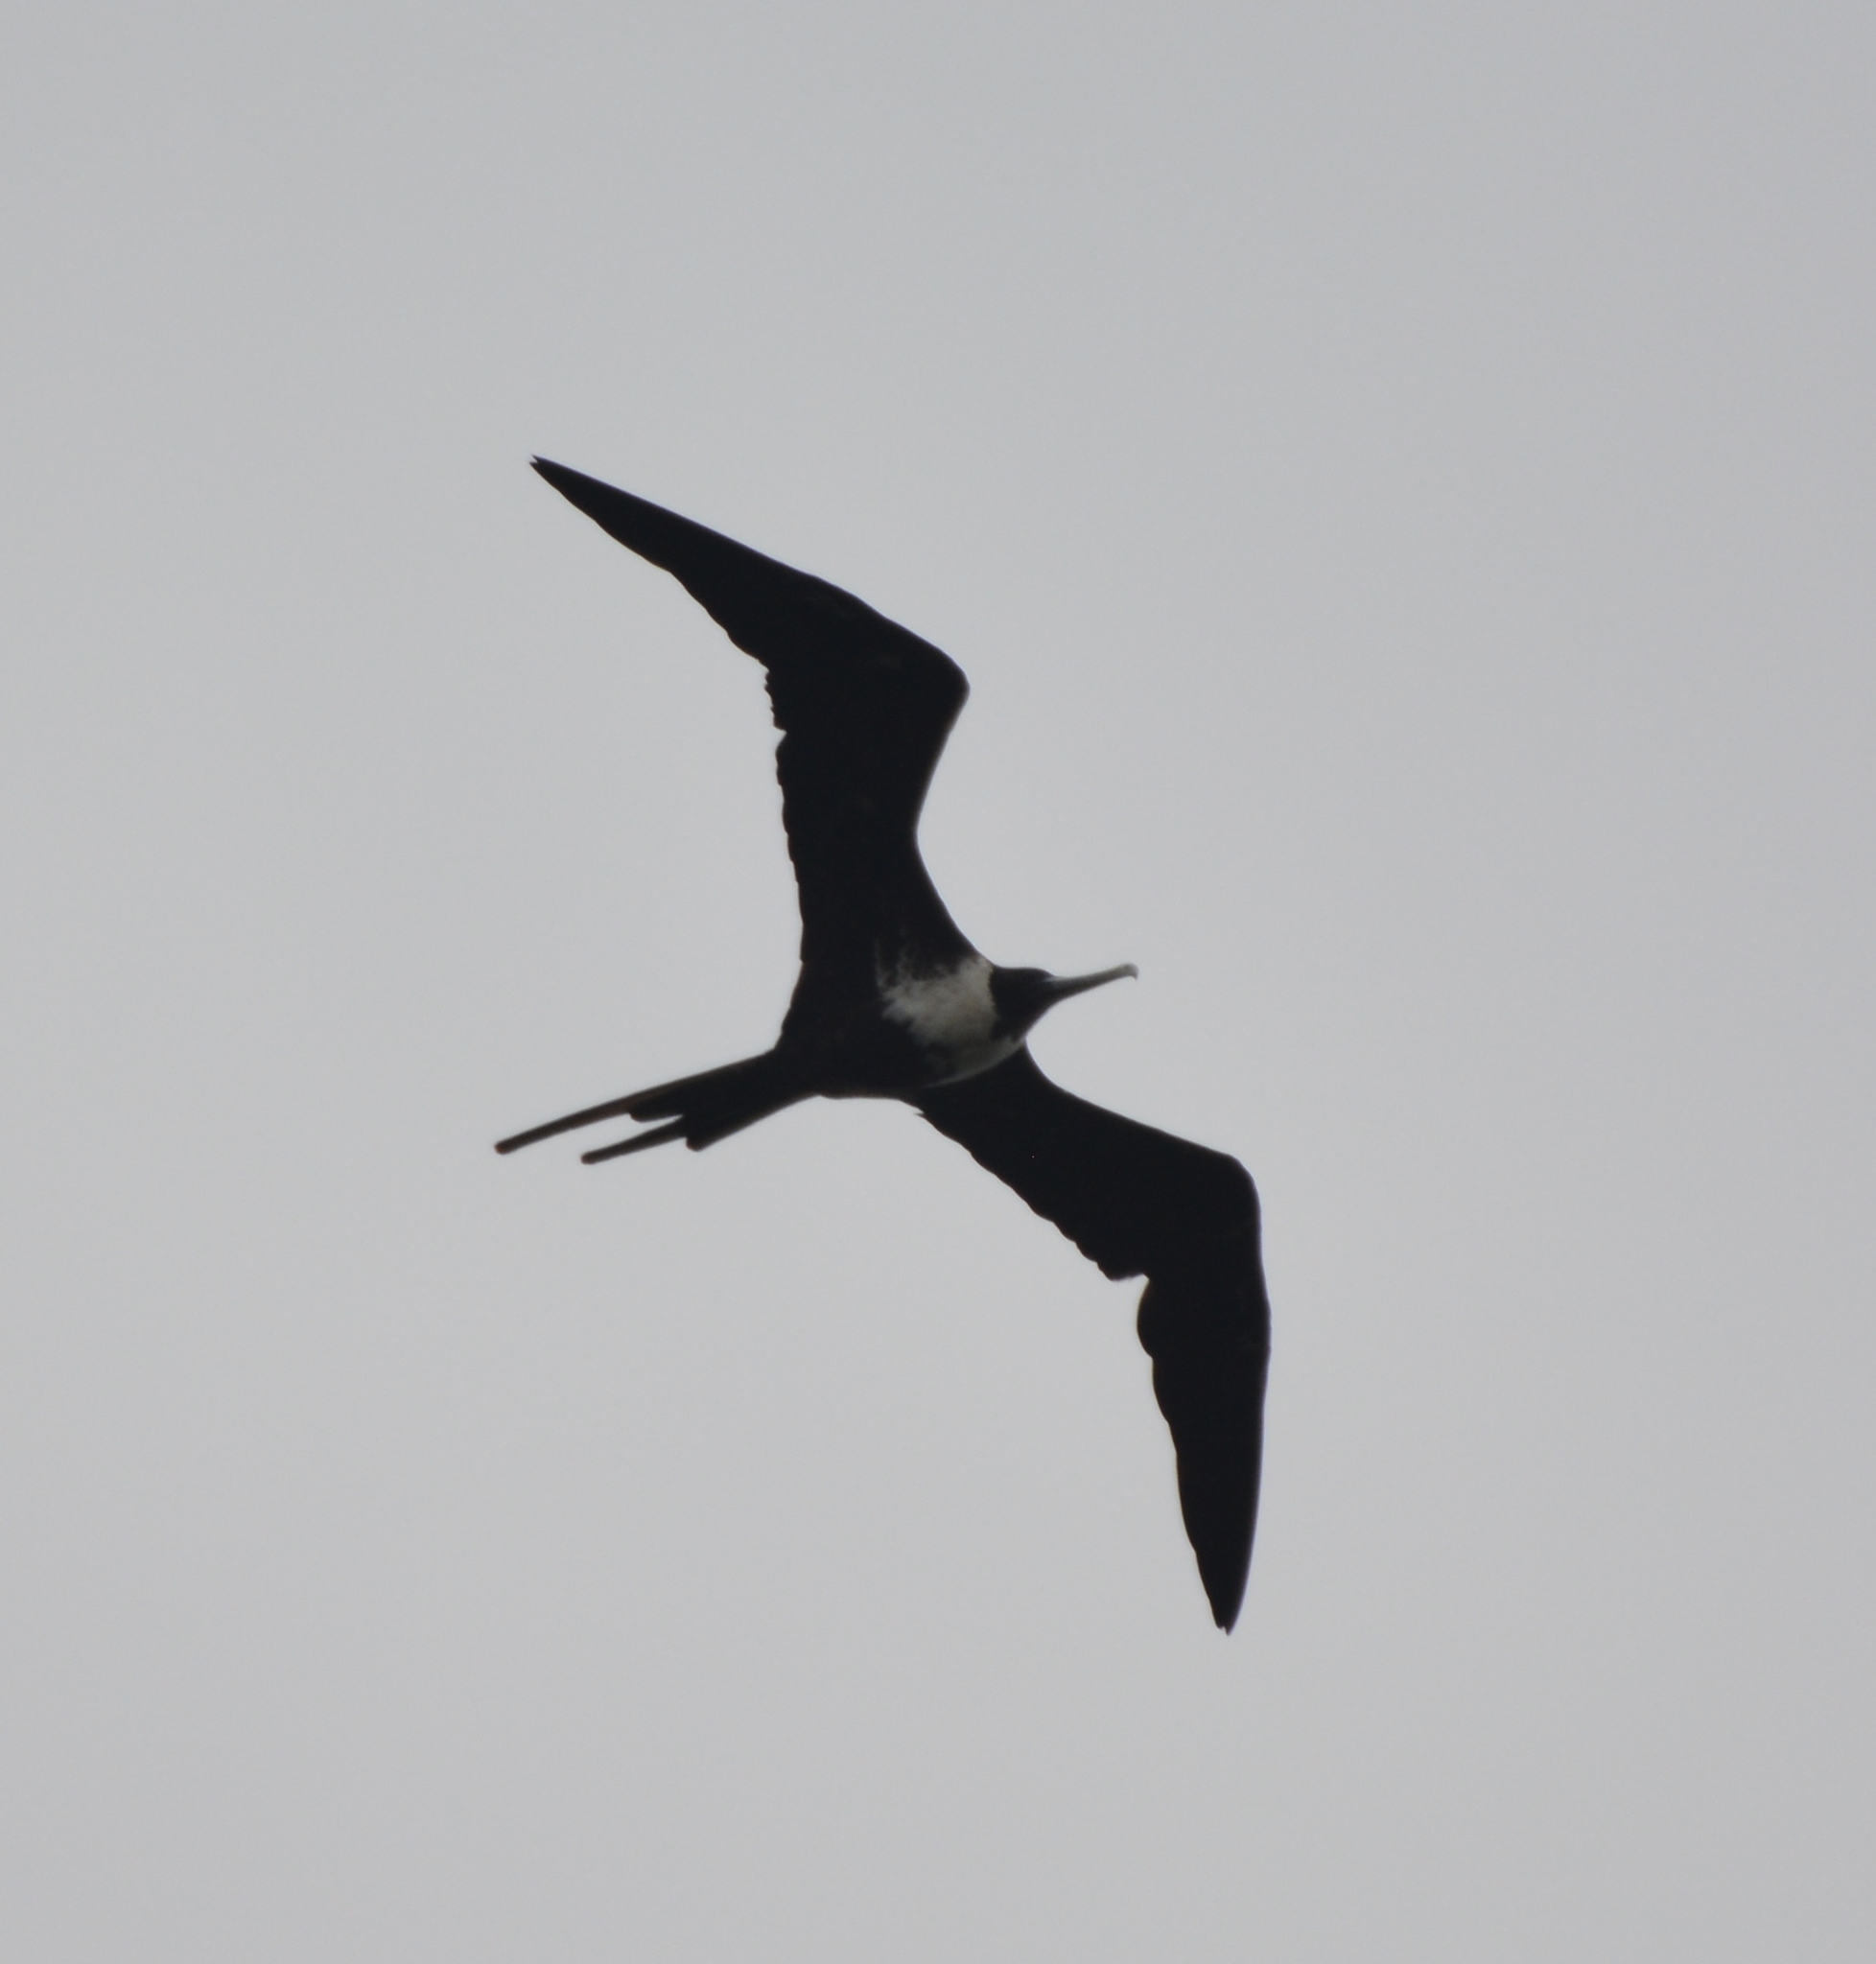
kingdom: Animalia
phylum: Chordata
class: Aves
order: Suliformes
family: Fregatidae
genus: Fregata
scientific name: Fregata magnificens
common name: Magnificent frigatebird
